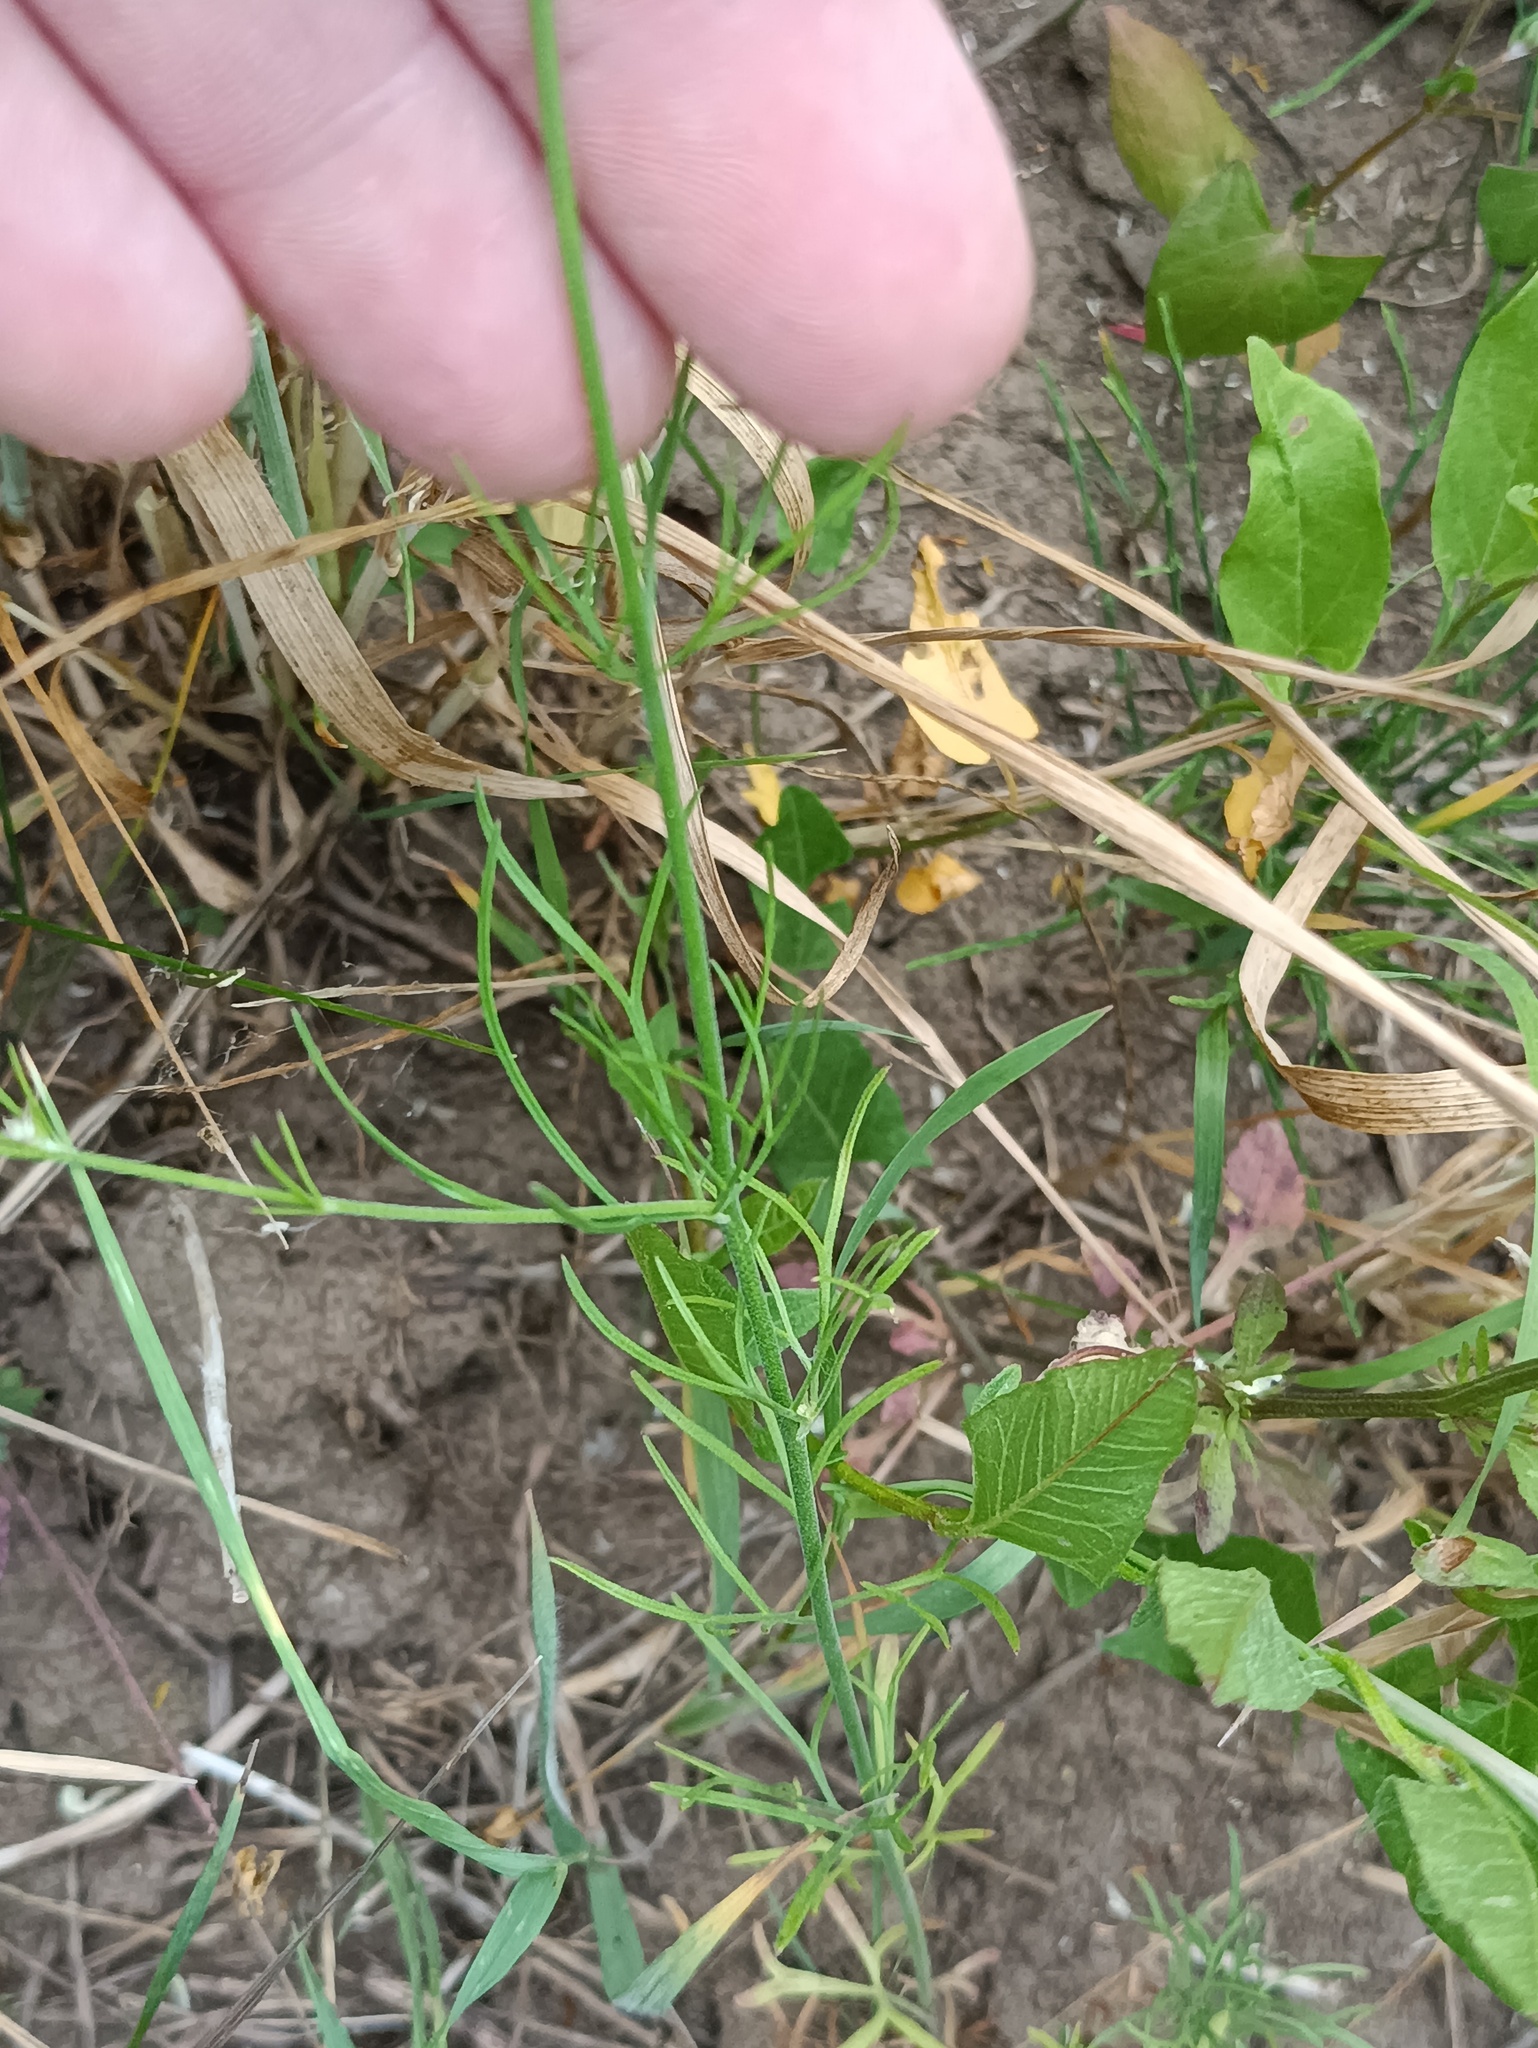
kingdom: Plantae
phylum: Tracheophyta
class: Magnoliopsida
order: Ranunculales
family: Ranunculaceae
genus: Delphinium
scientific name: Delphinium consolida
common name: Branching larkspur
